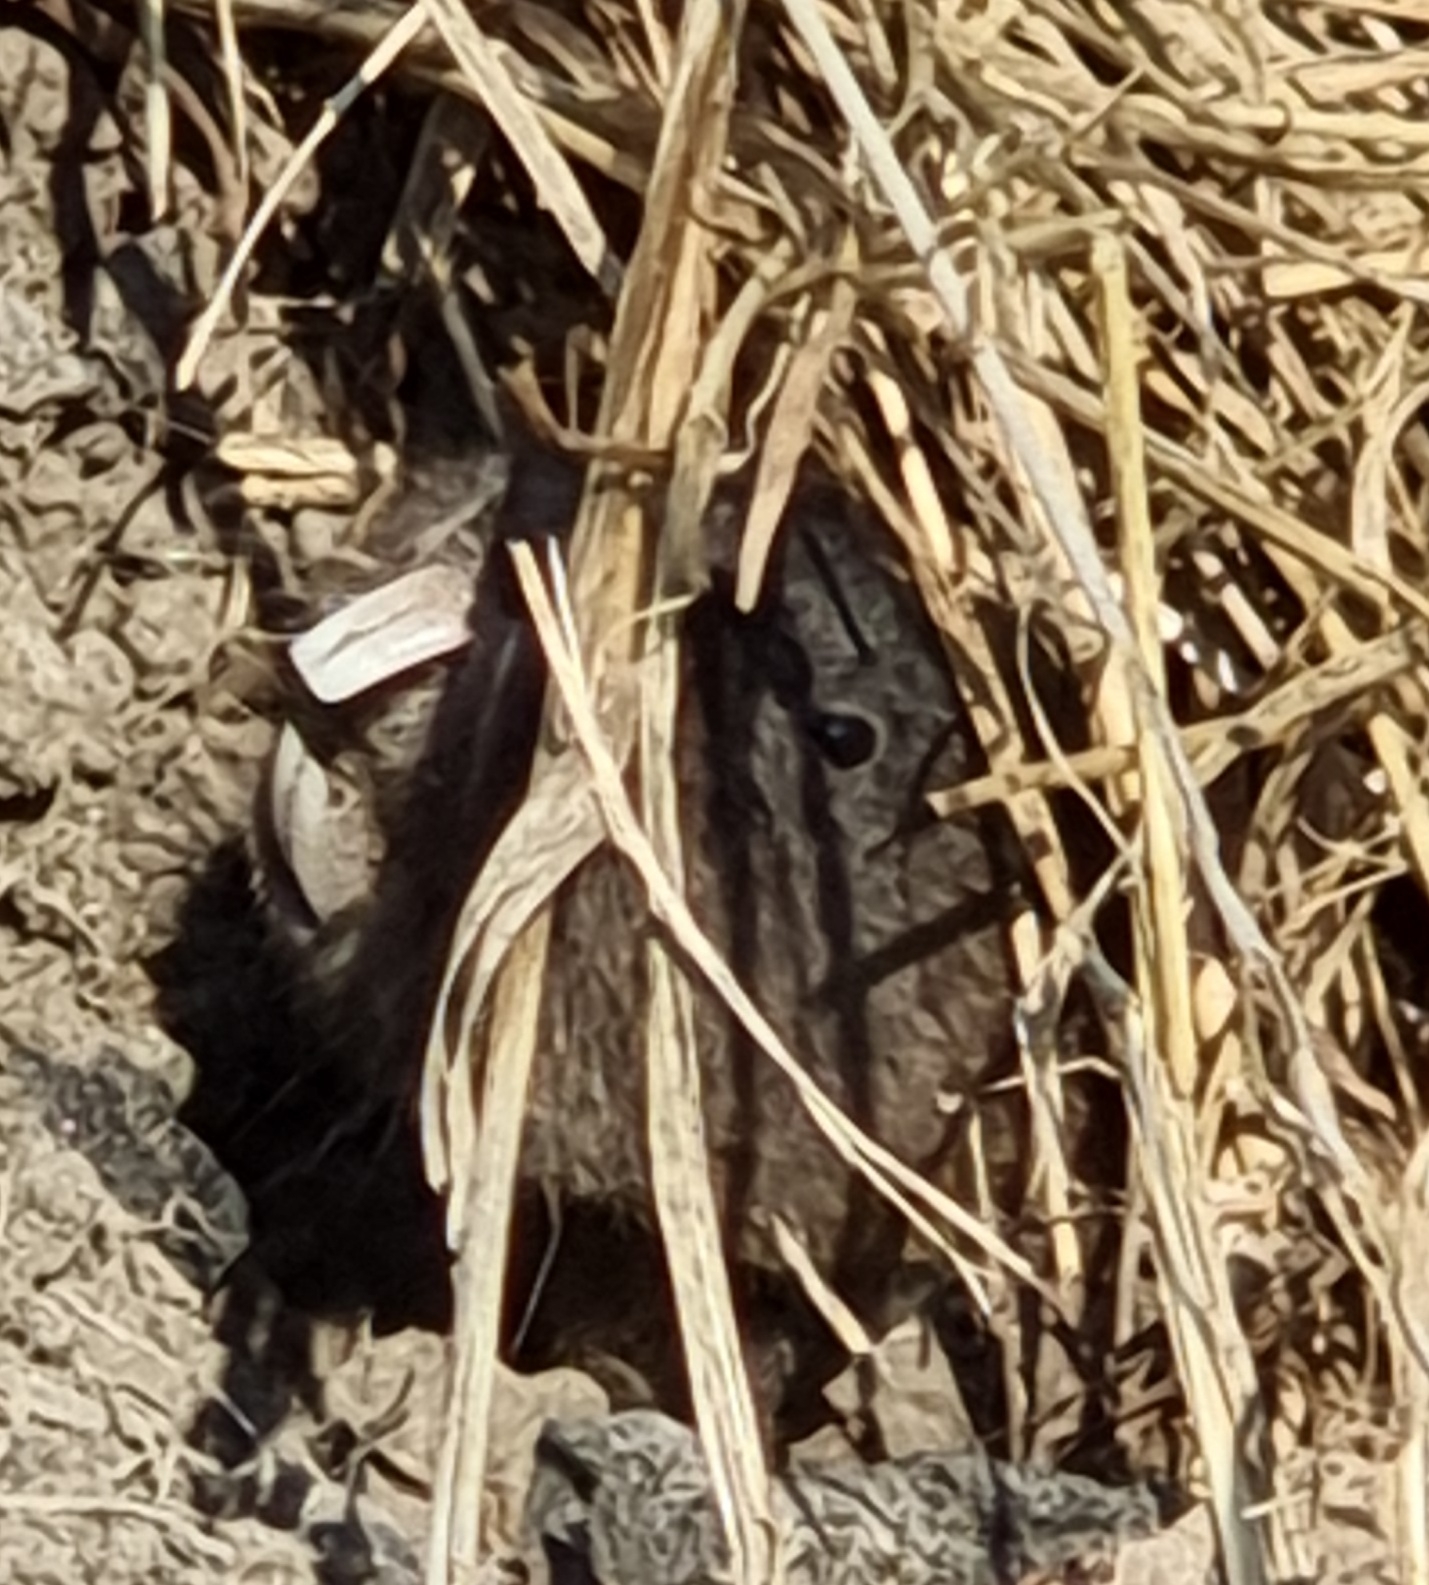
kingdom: Animalia
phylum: Chordata
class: Mammalia
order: Rodentia
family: Cricetidae
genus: Ellobius
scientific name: Ellobius talpinus
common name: Northern mole vole
